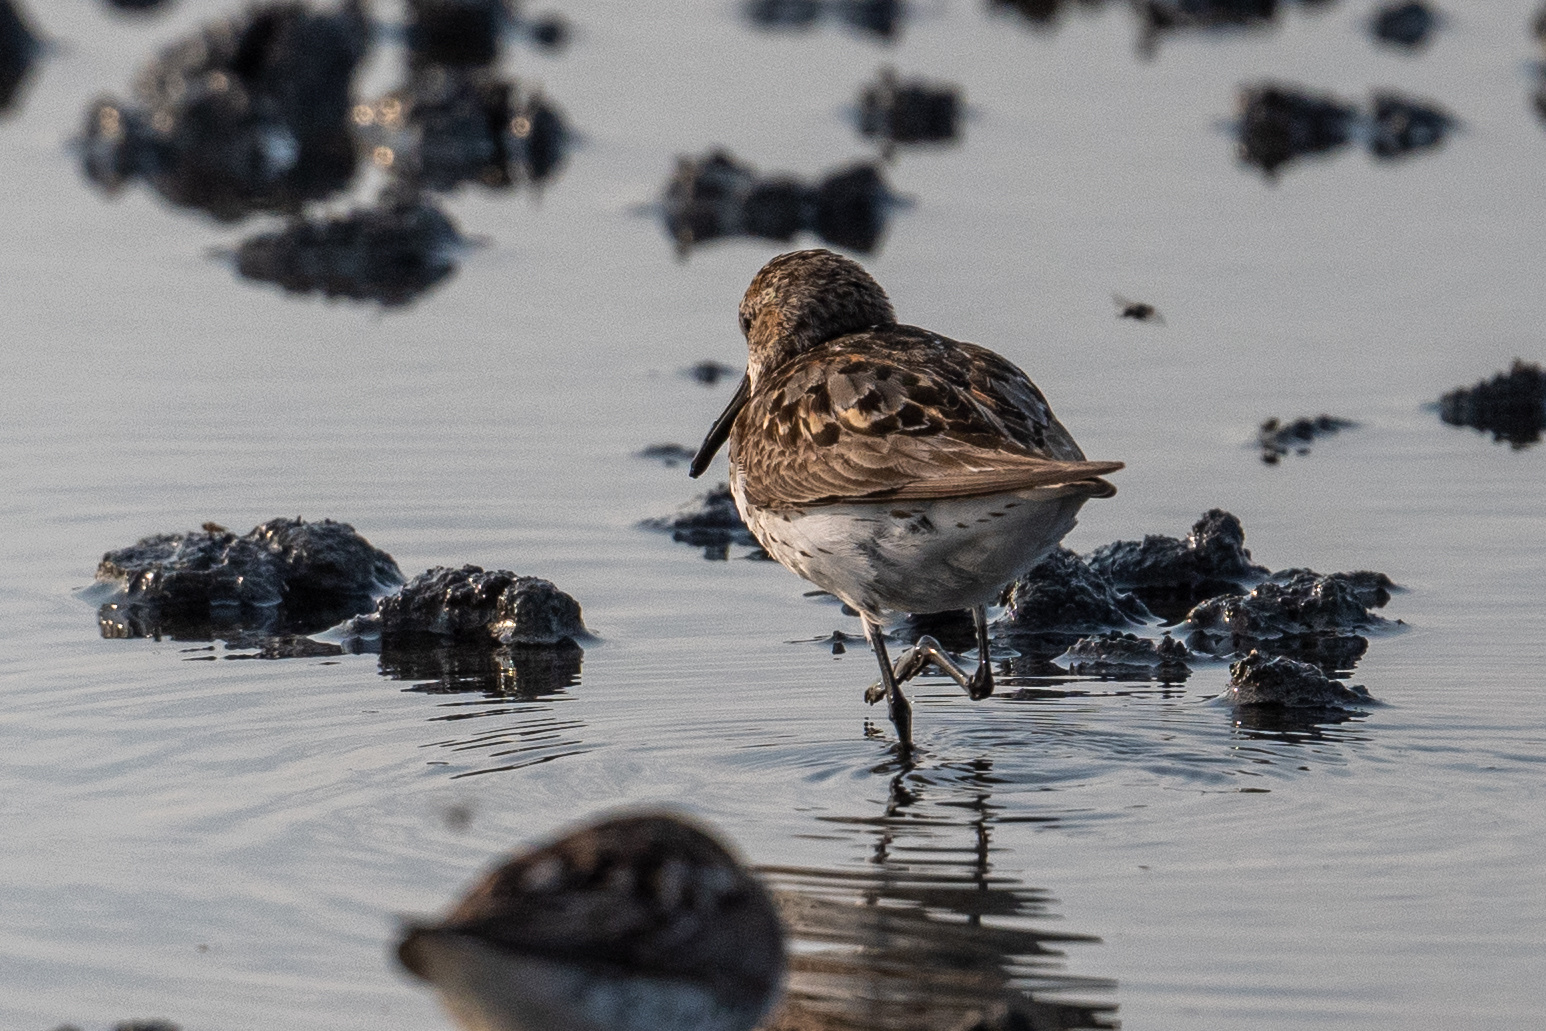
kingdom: Animalia
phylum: Chordata
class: Aves
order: Charadriiformes
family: Scolopacidae
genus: Calidris
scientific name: Calidris mauri
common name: Western sandpiper
